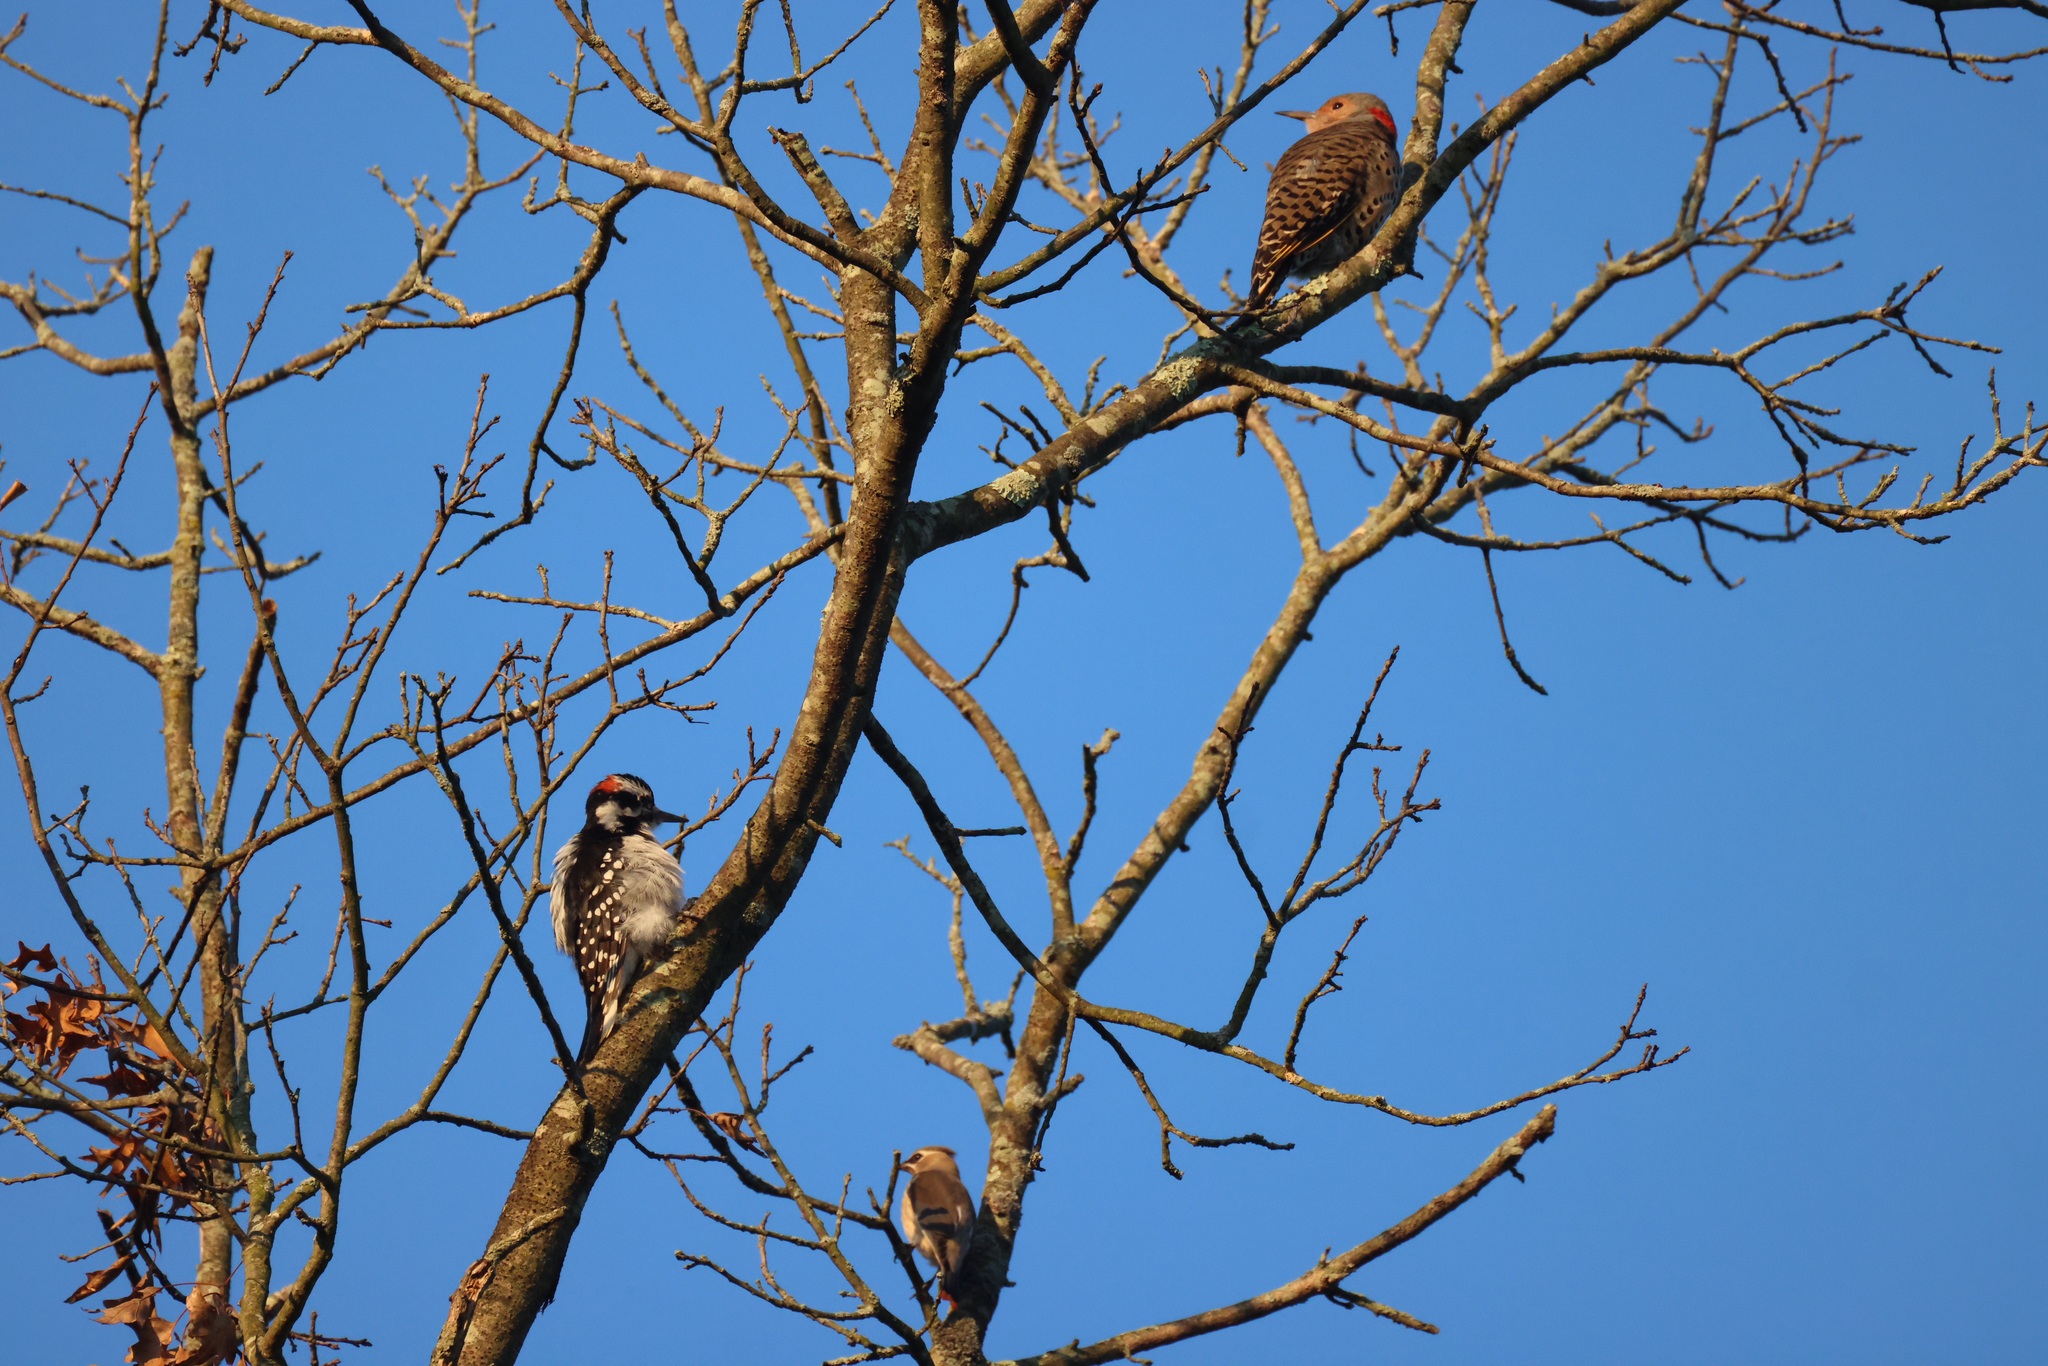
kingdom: Animalia
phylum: Chordata
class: Aves
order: Piciformes
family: Picidae
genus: Colaptes
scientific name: Colaptes auratus
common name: Northern flicker
